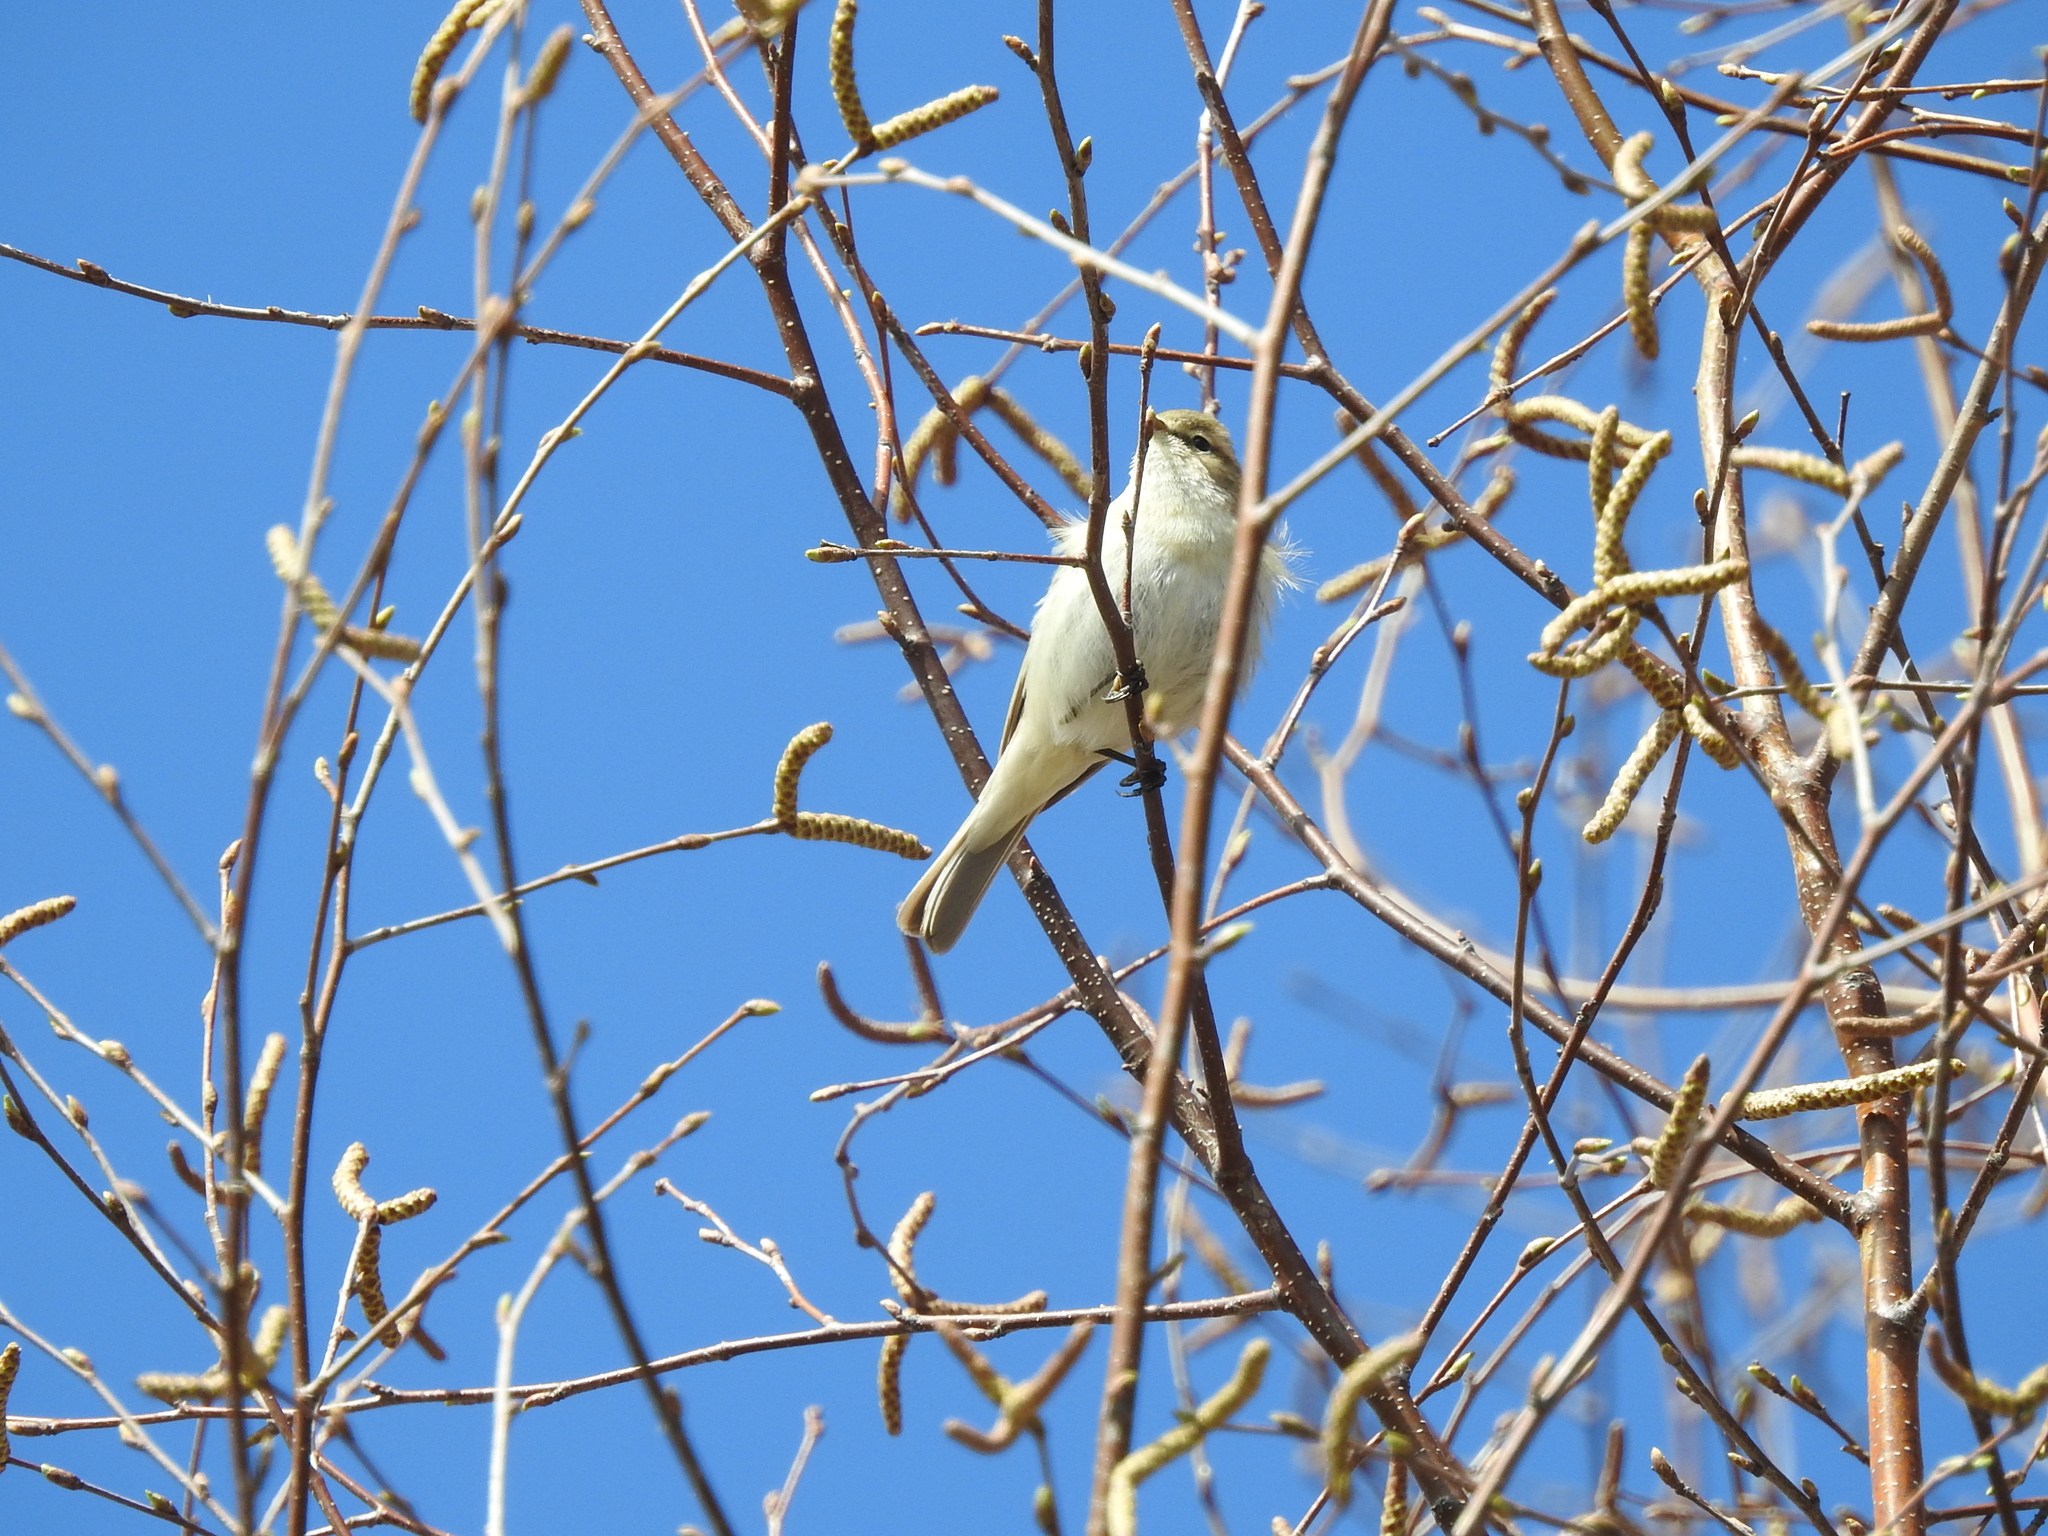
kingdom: Animalia
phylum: Chordata
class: Aves
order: Passeriformes
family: Phylloscopidae
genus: Phylloscopus
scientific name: Phylloscopus collybita
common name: Common chiffchaff
